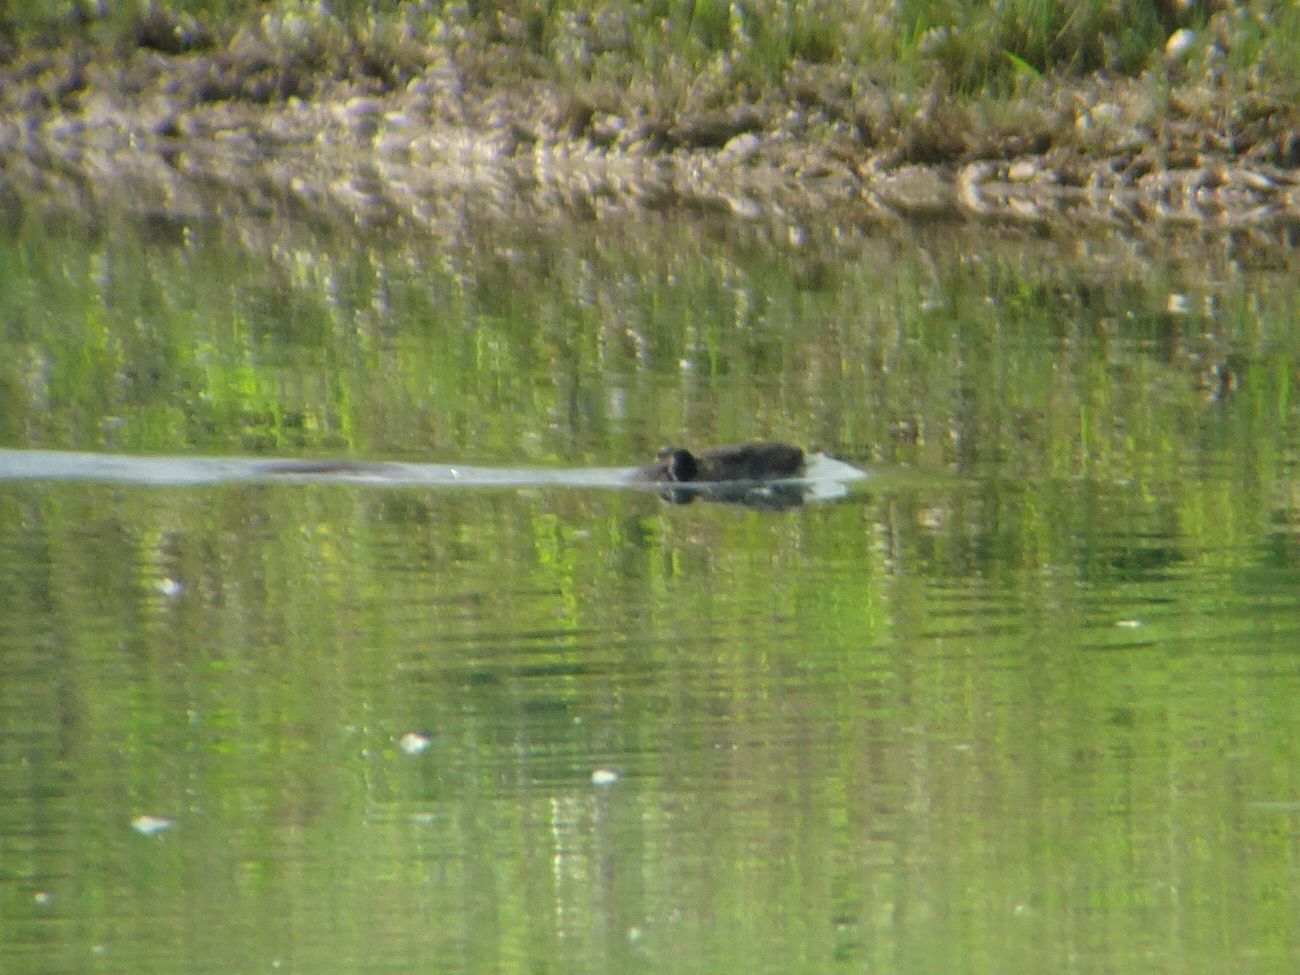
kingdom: Animalia
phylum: Chordata
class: Mammalia
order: Rodentia
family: Myocastoridae
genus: Myocastor
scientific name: Myocastor coypus
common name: Coypu
